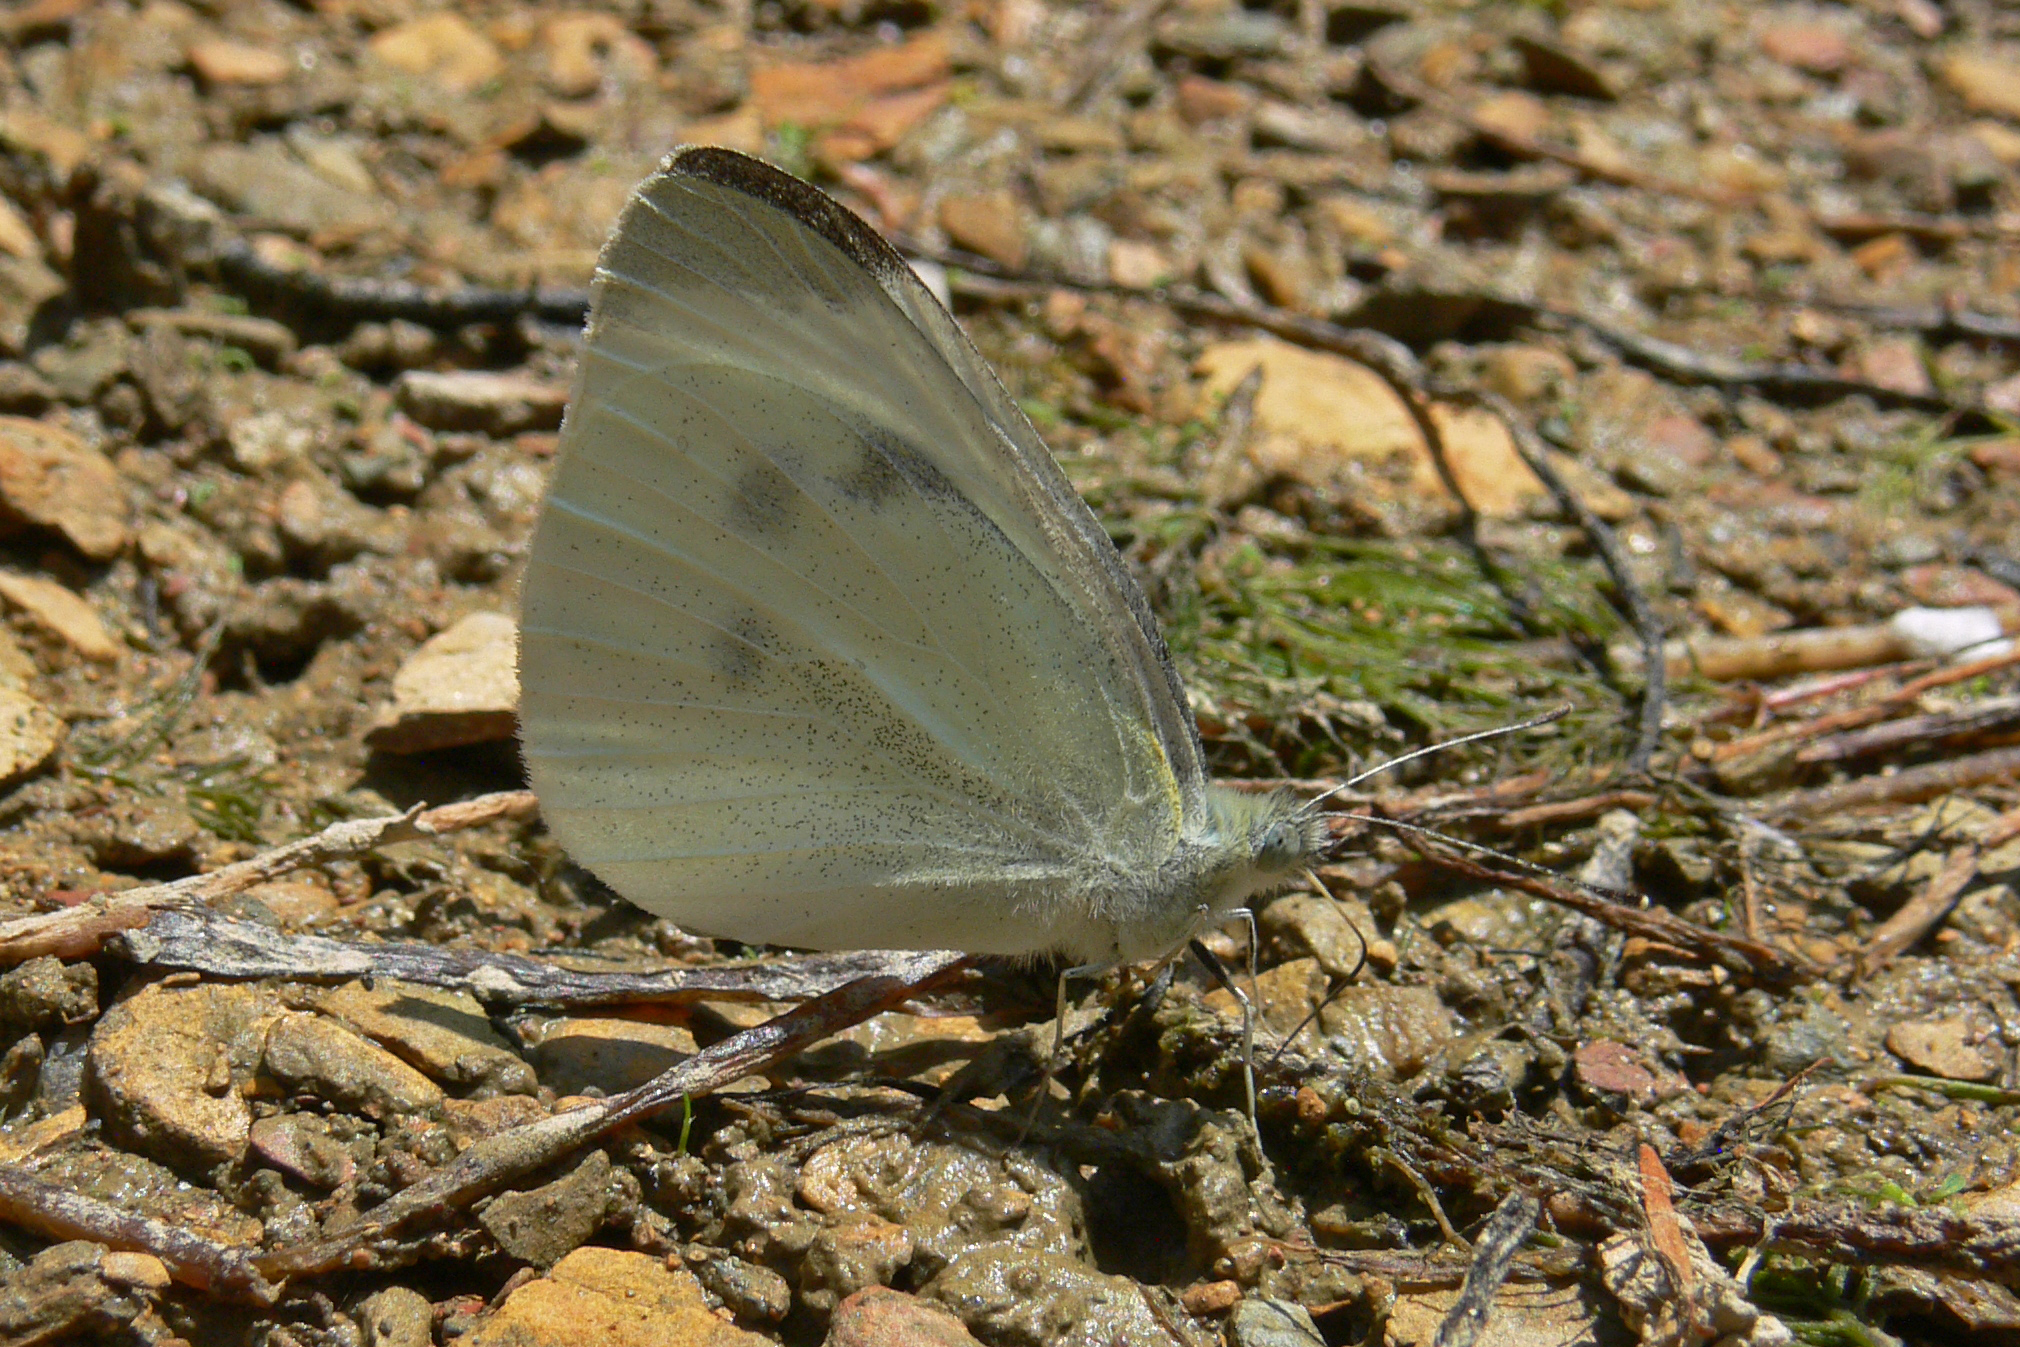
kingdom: Animalia
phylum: Arthropoda
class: Insecta
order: Lepidoptera
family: Pieridae
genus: Pieris
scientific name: Pieris rapae
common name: Small white
